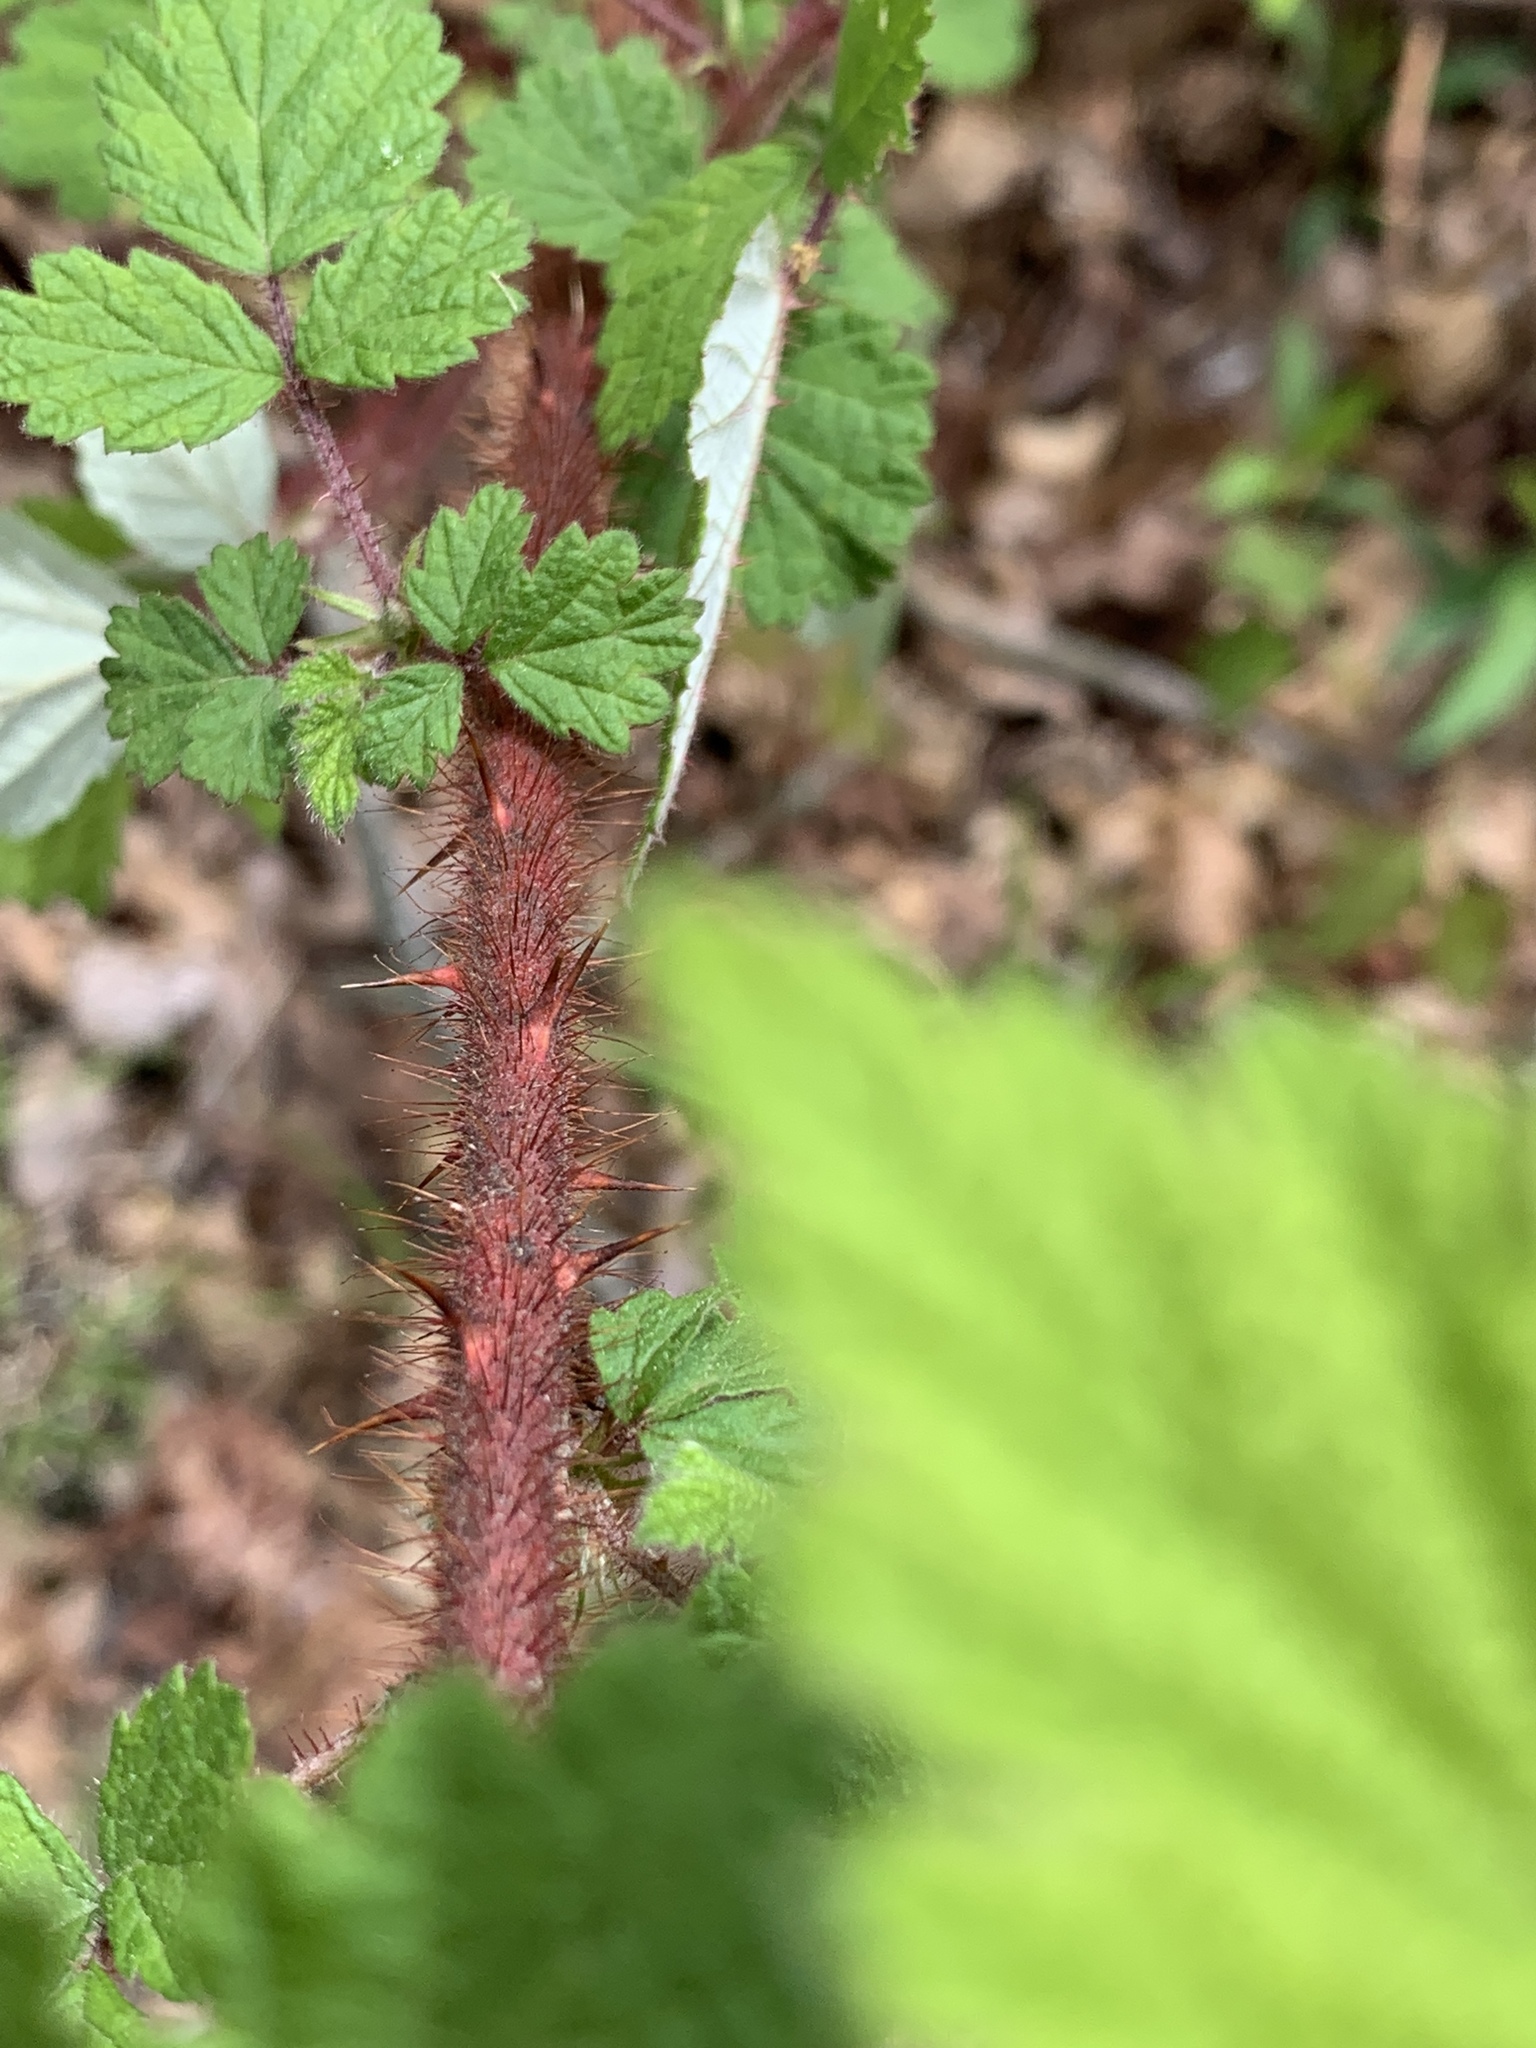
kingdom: Plantae
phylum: Tracheophyta
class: Magnoliopsida
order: Rosales
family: Rosaceae
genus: Rubus
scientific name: Rubus phoenicolasius
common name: Japanese wineberry
